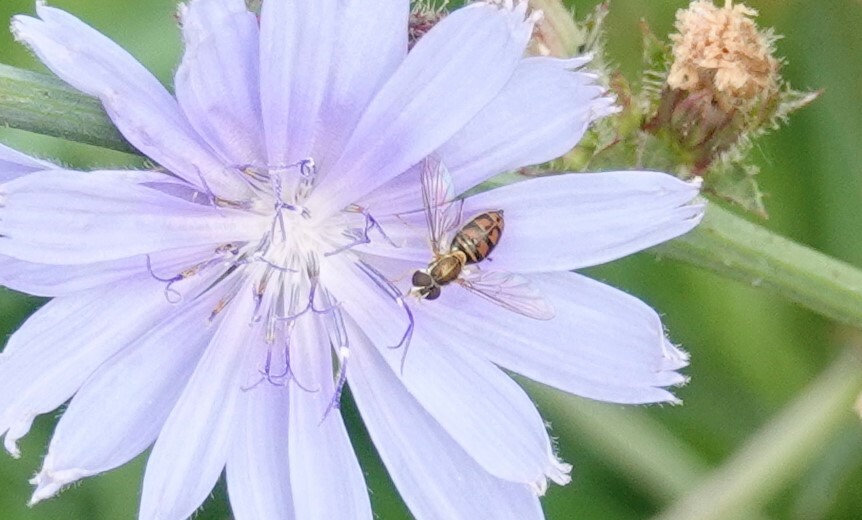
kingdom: Animalia
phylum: Arthropoda
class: Insecta
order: Diptera
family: Syrphidae
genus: Toxomerus
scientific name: Toxomerus marginatus
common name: Syrphid fly
